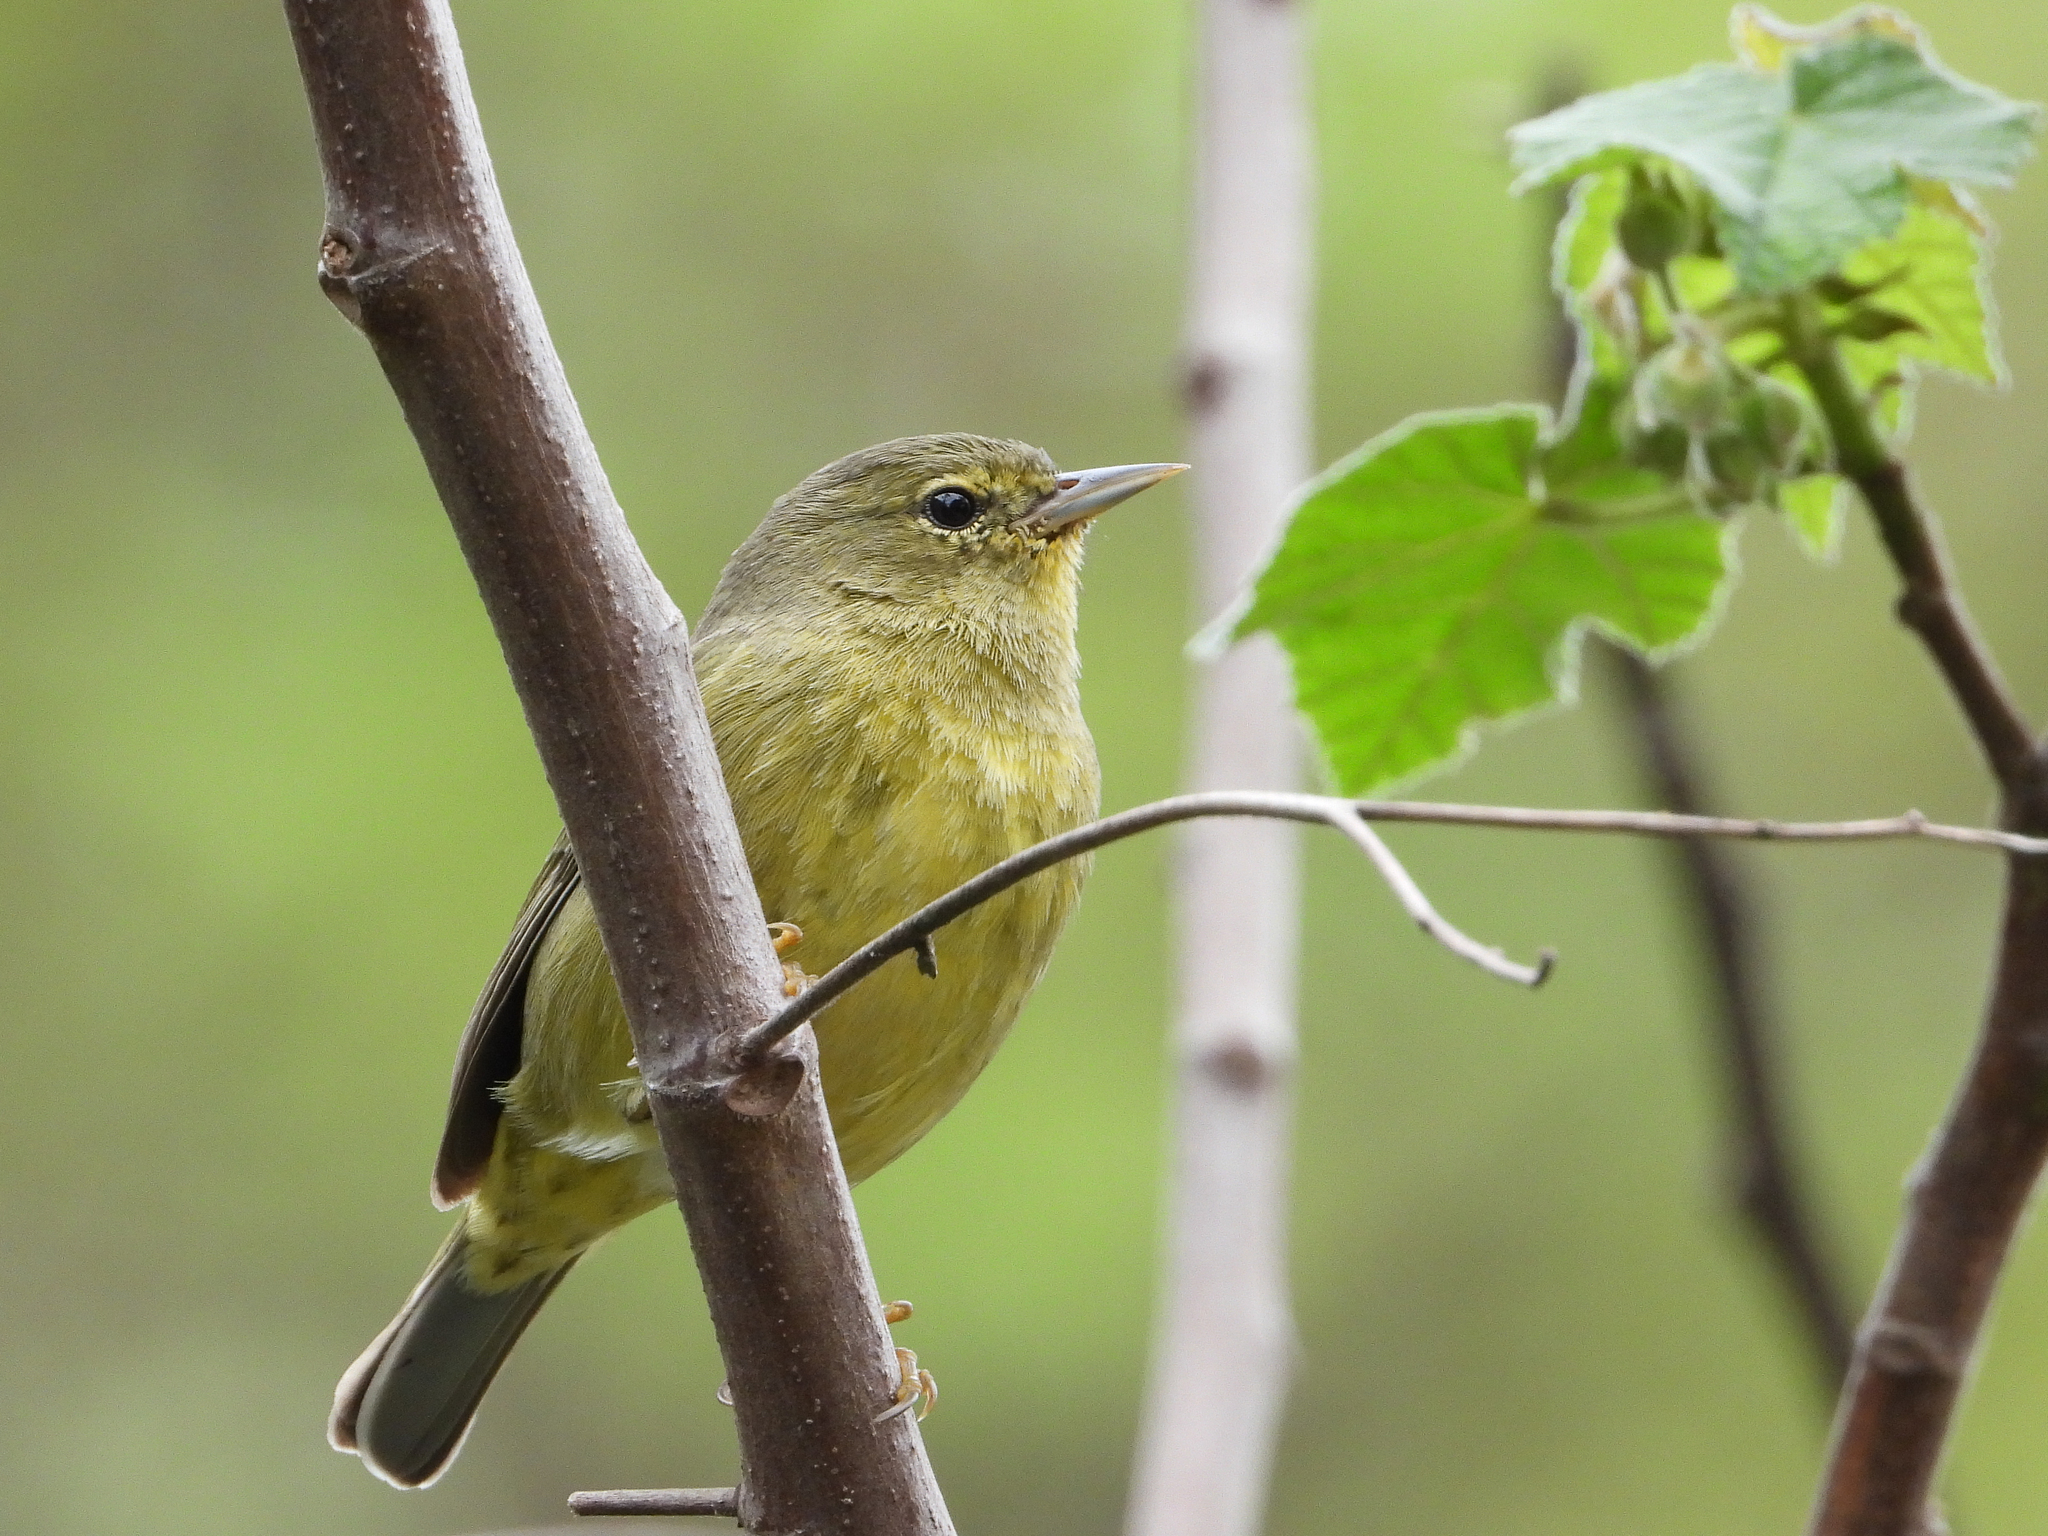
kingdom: Animalia
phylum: Chordata
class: Aves
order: Passeriformes
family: Parulidae
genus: Leiothlypis
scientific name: Leiothlypis celata
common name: Orange-crowned warbler
